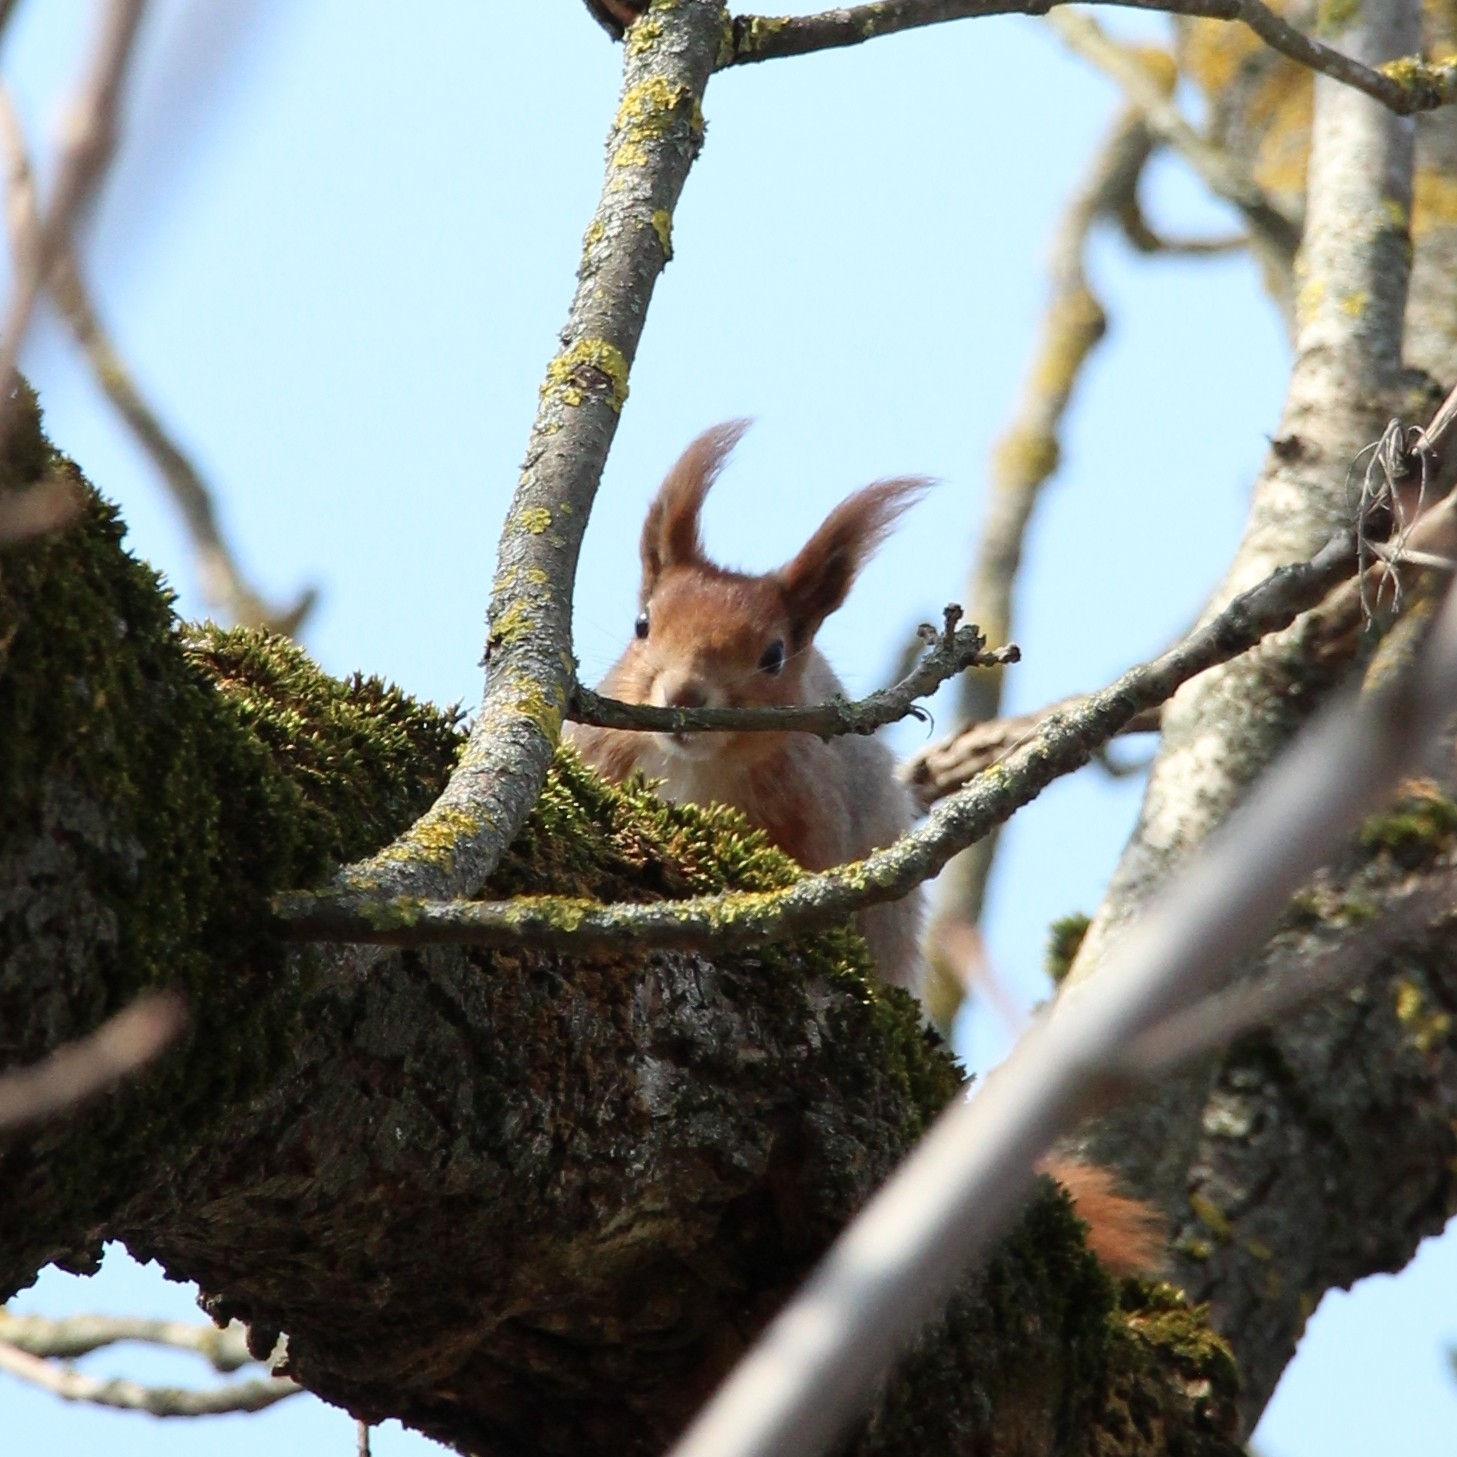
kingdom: Animalia
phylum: Chordata
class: Mammalia
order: Rodentia
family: Sciuridae
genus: Sciurus
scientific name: Sciurus vulgaris
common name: Eurasian red squirrel
